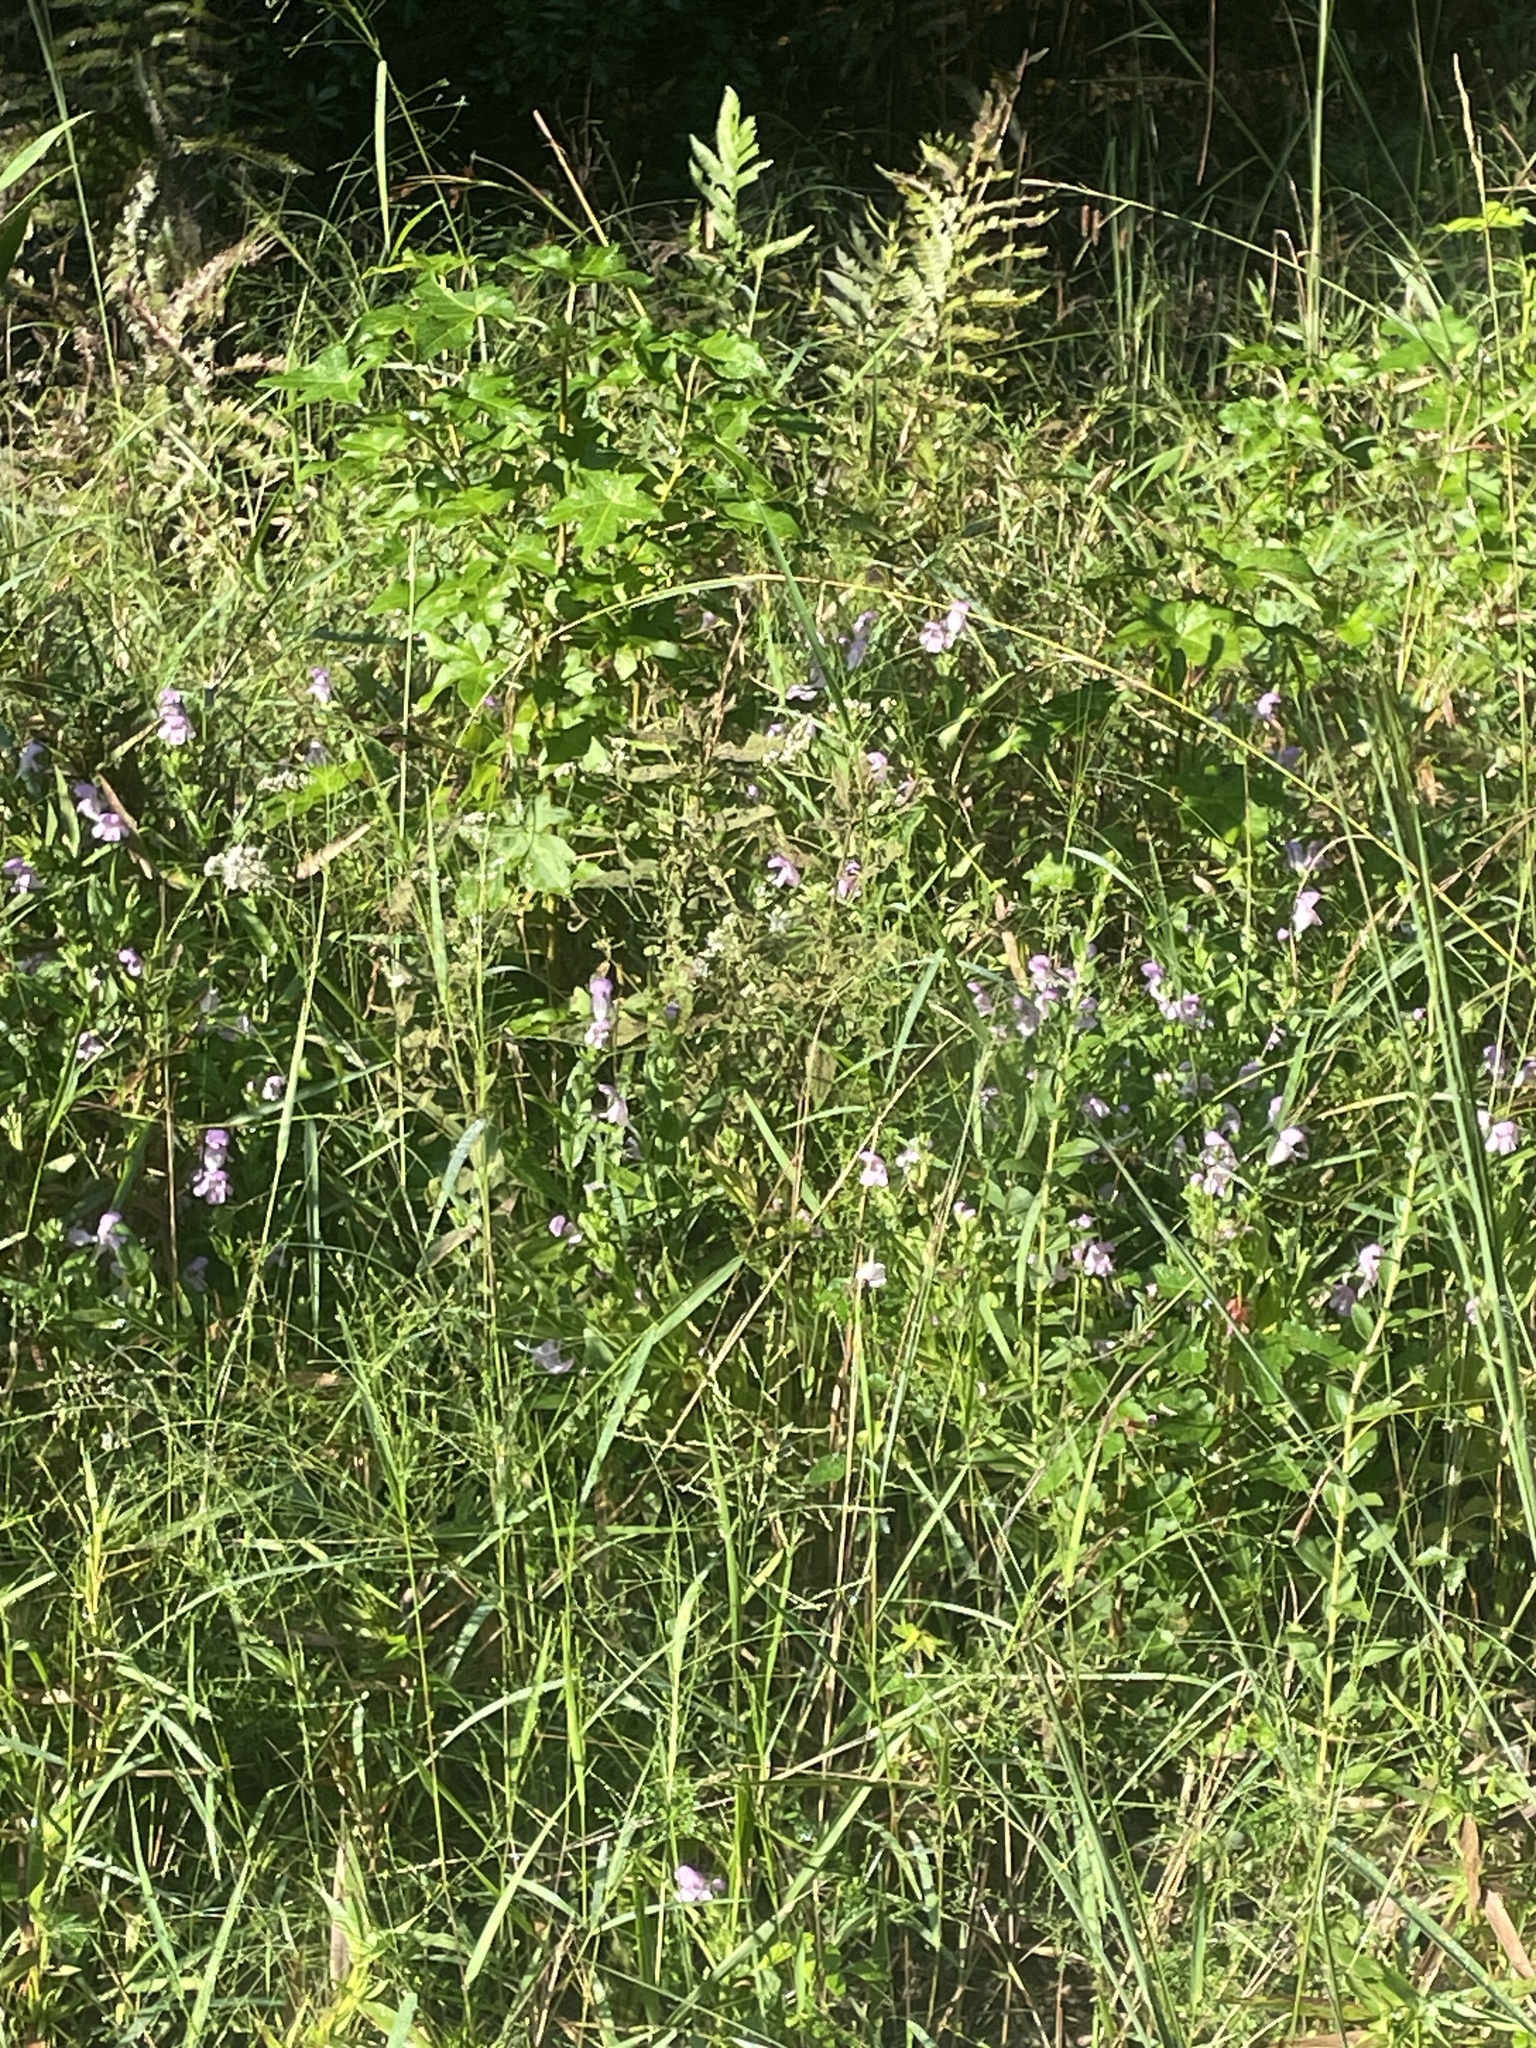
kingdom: Plantae
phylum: Tracheophyta
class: Magnoliopsida
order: Lamiales
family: Lamiaceae
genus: Macbridea
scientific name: Macbridea caroliniana
